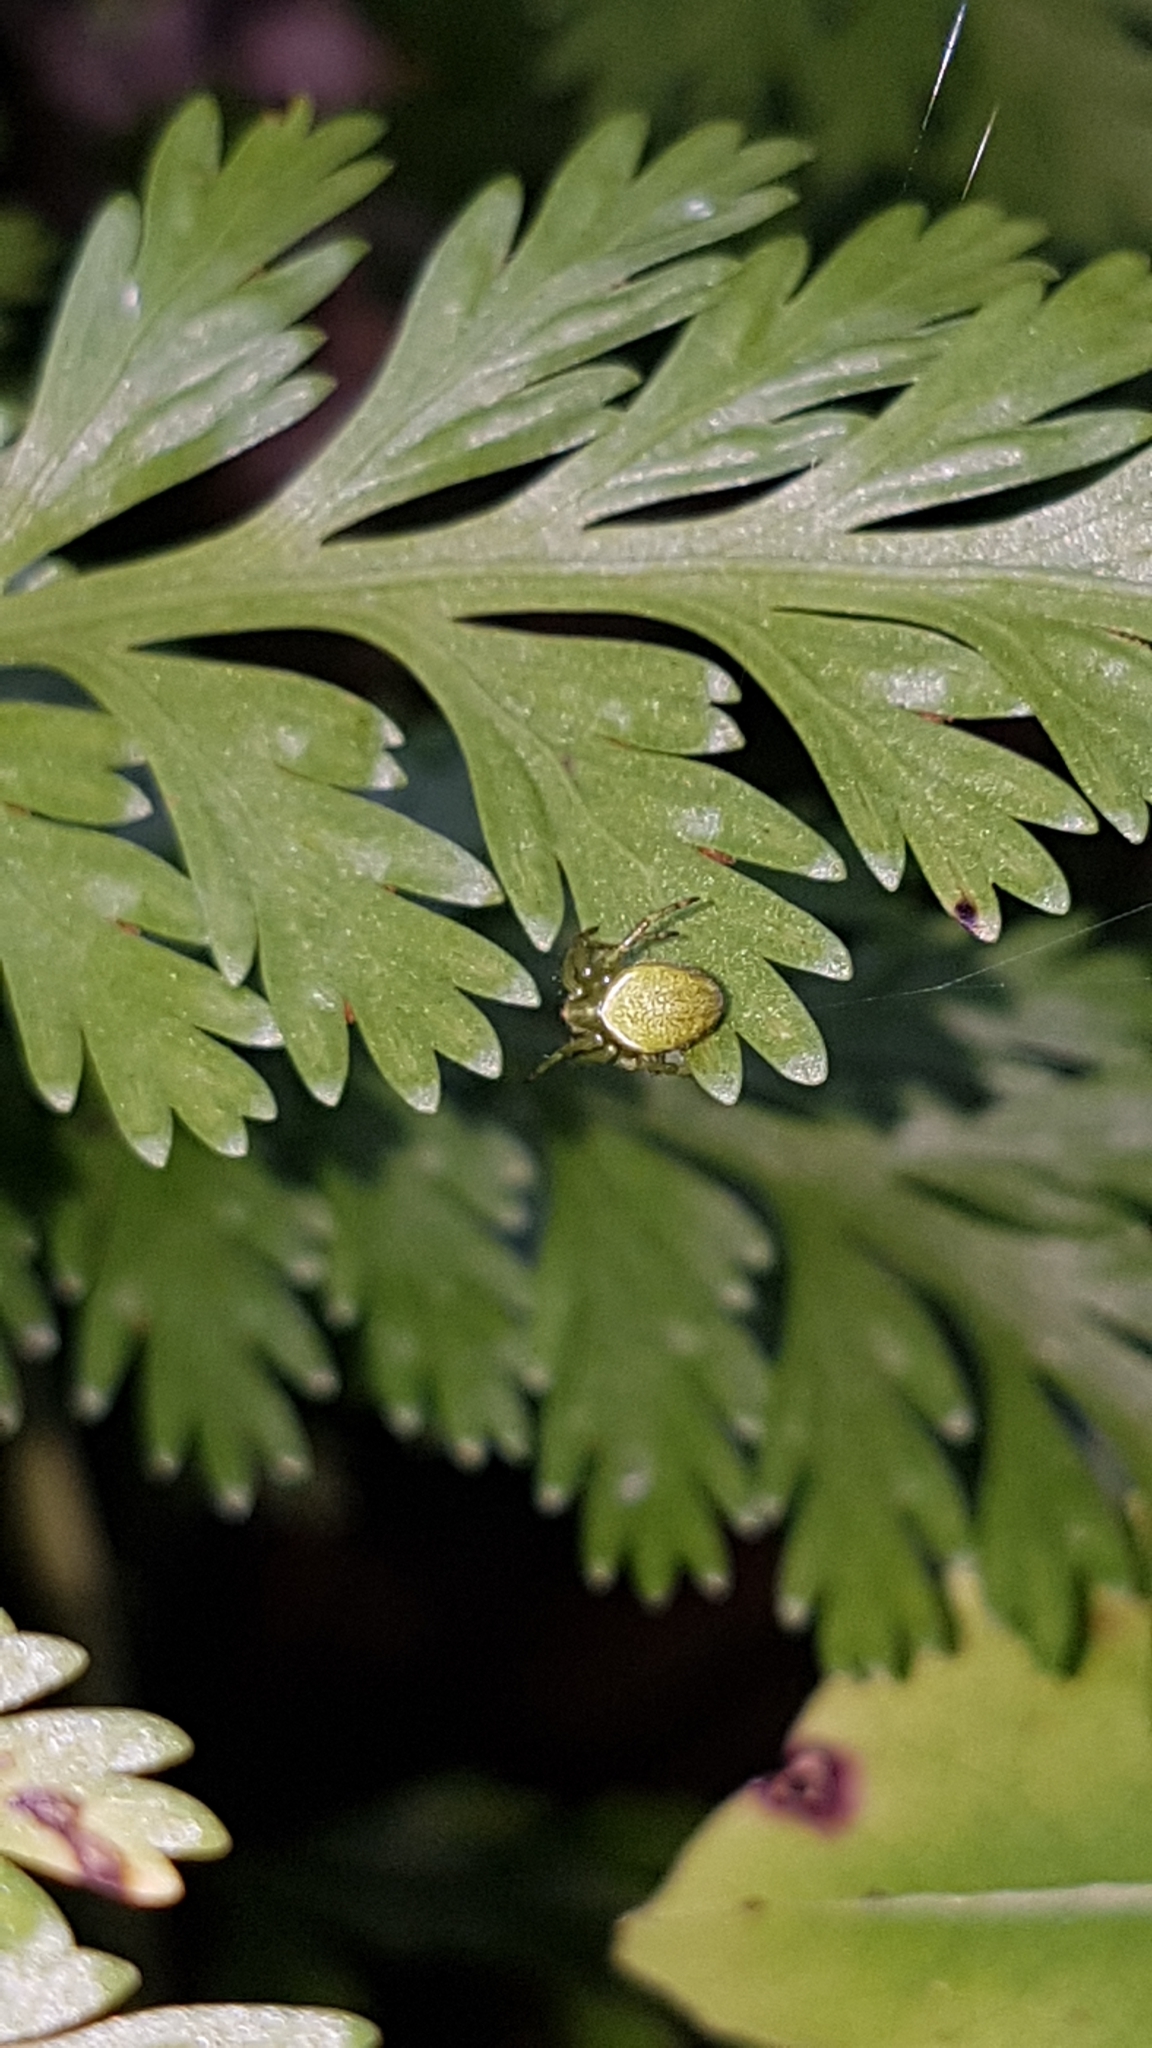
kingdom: Animalia
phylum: Arthropoda
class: Arachnida
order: Araneae
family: Araneidae
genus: Colaranea
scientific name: Colaranea viriditas
